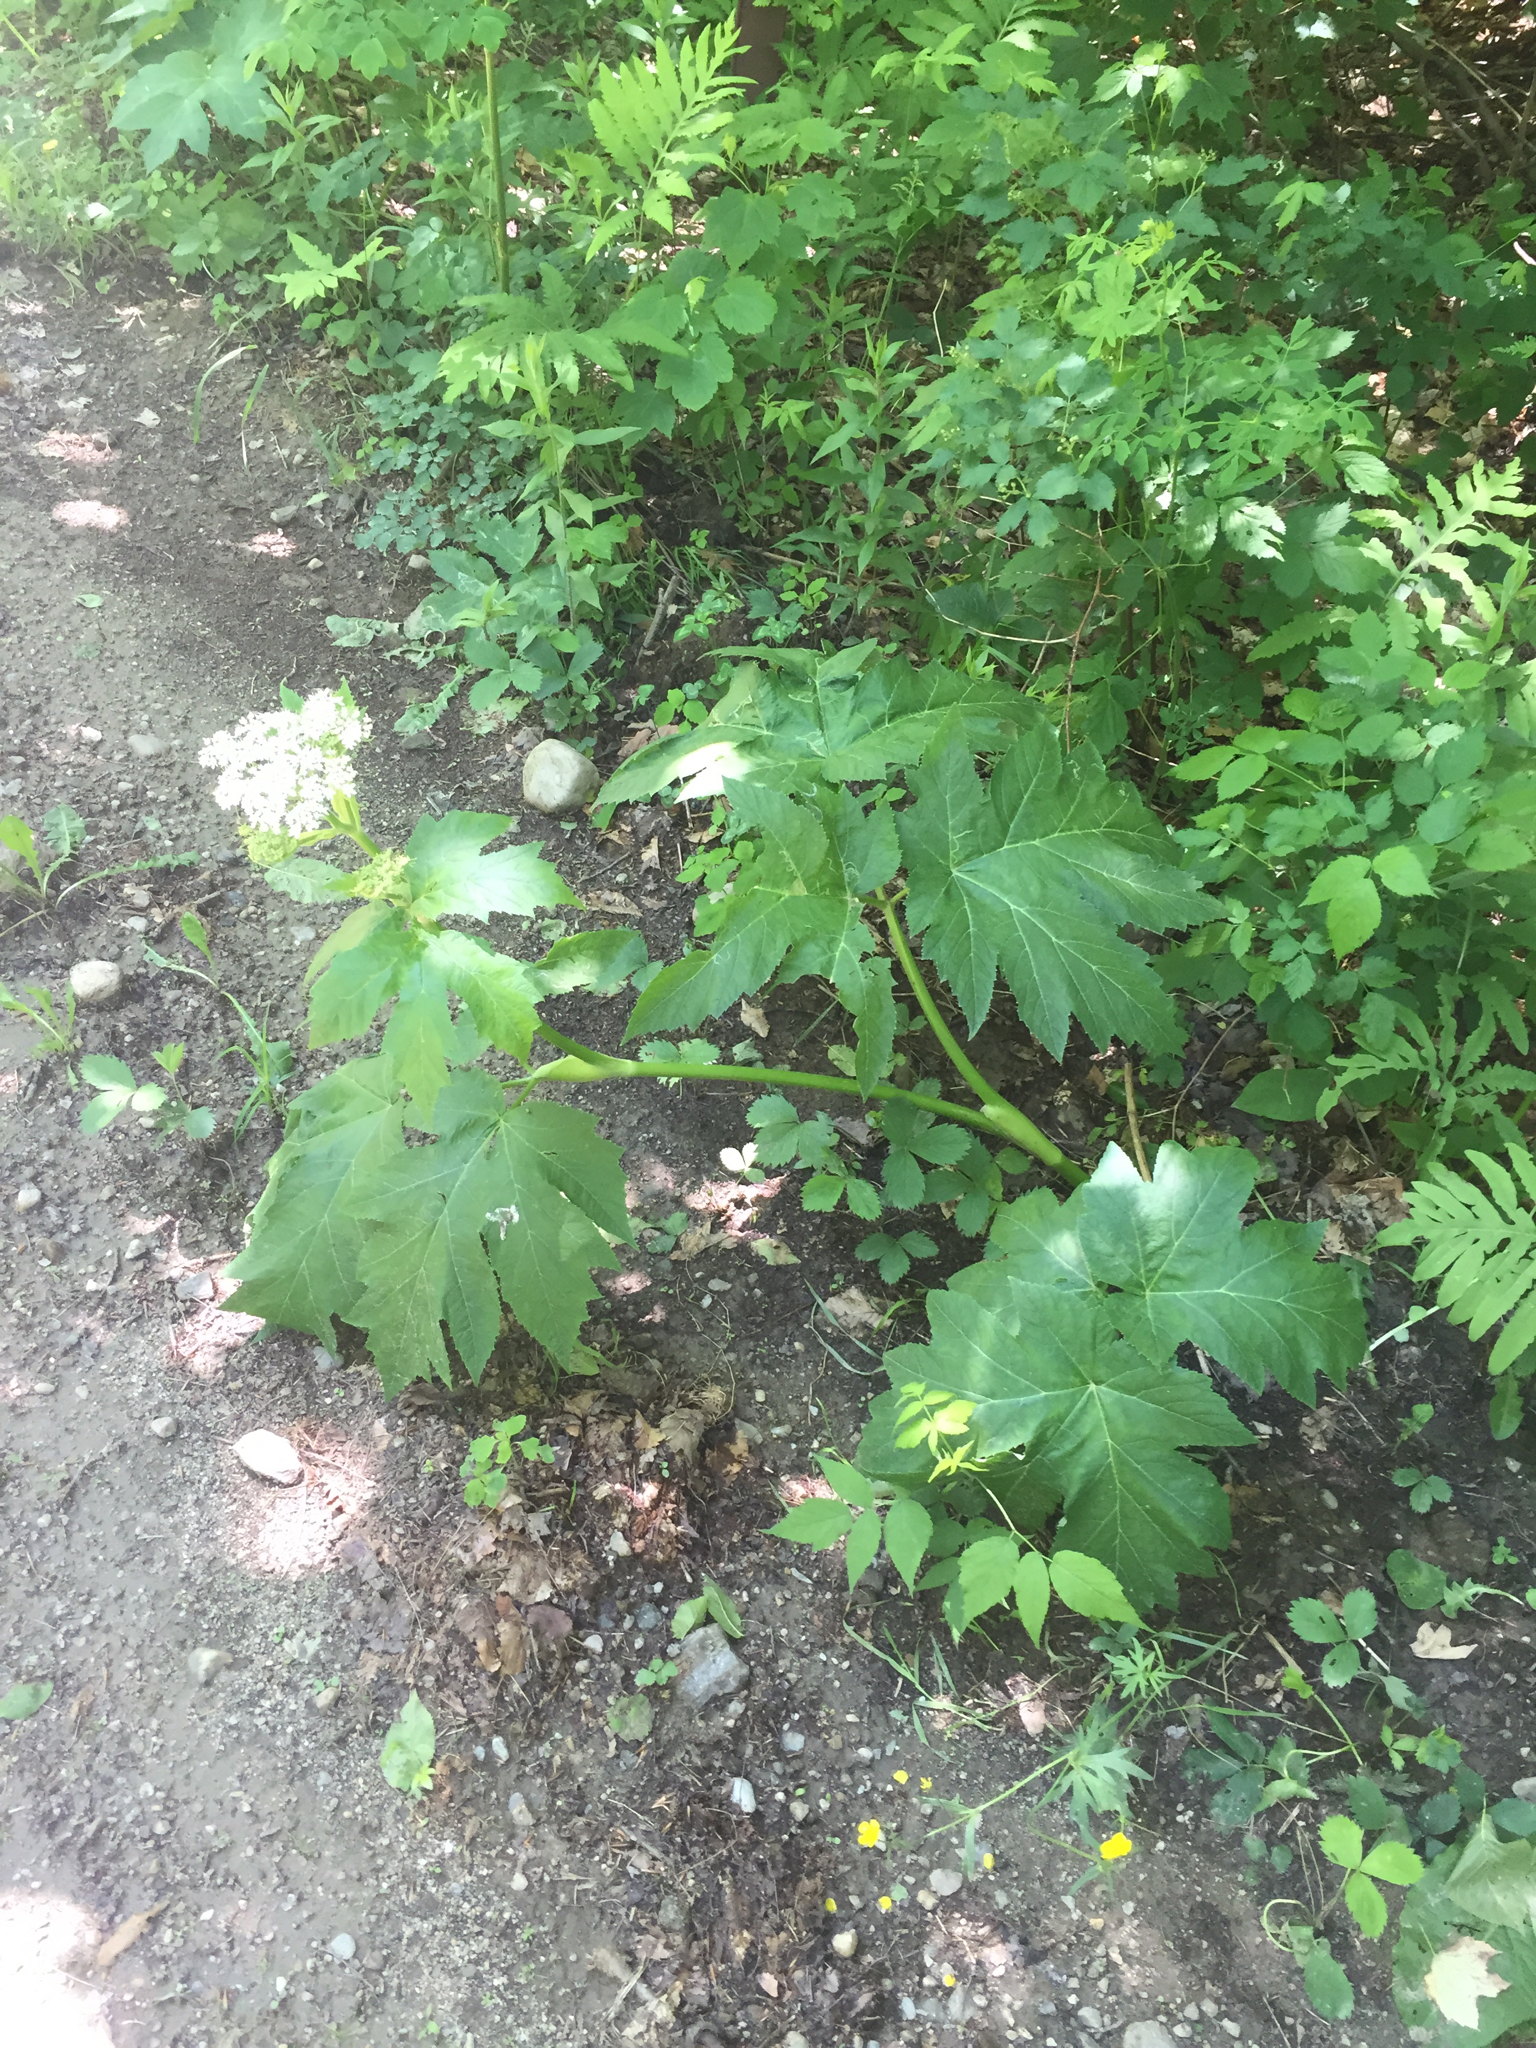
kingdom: Plantae
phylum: Tracheophyta
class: Magnoliopsida
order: Apiales
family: Apiaceae
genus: Heracleum
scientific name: Heracleum maximum
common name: American cow parsnip
